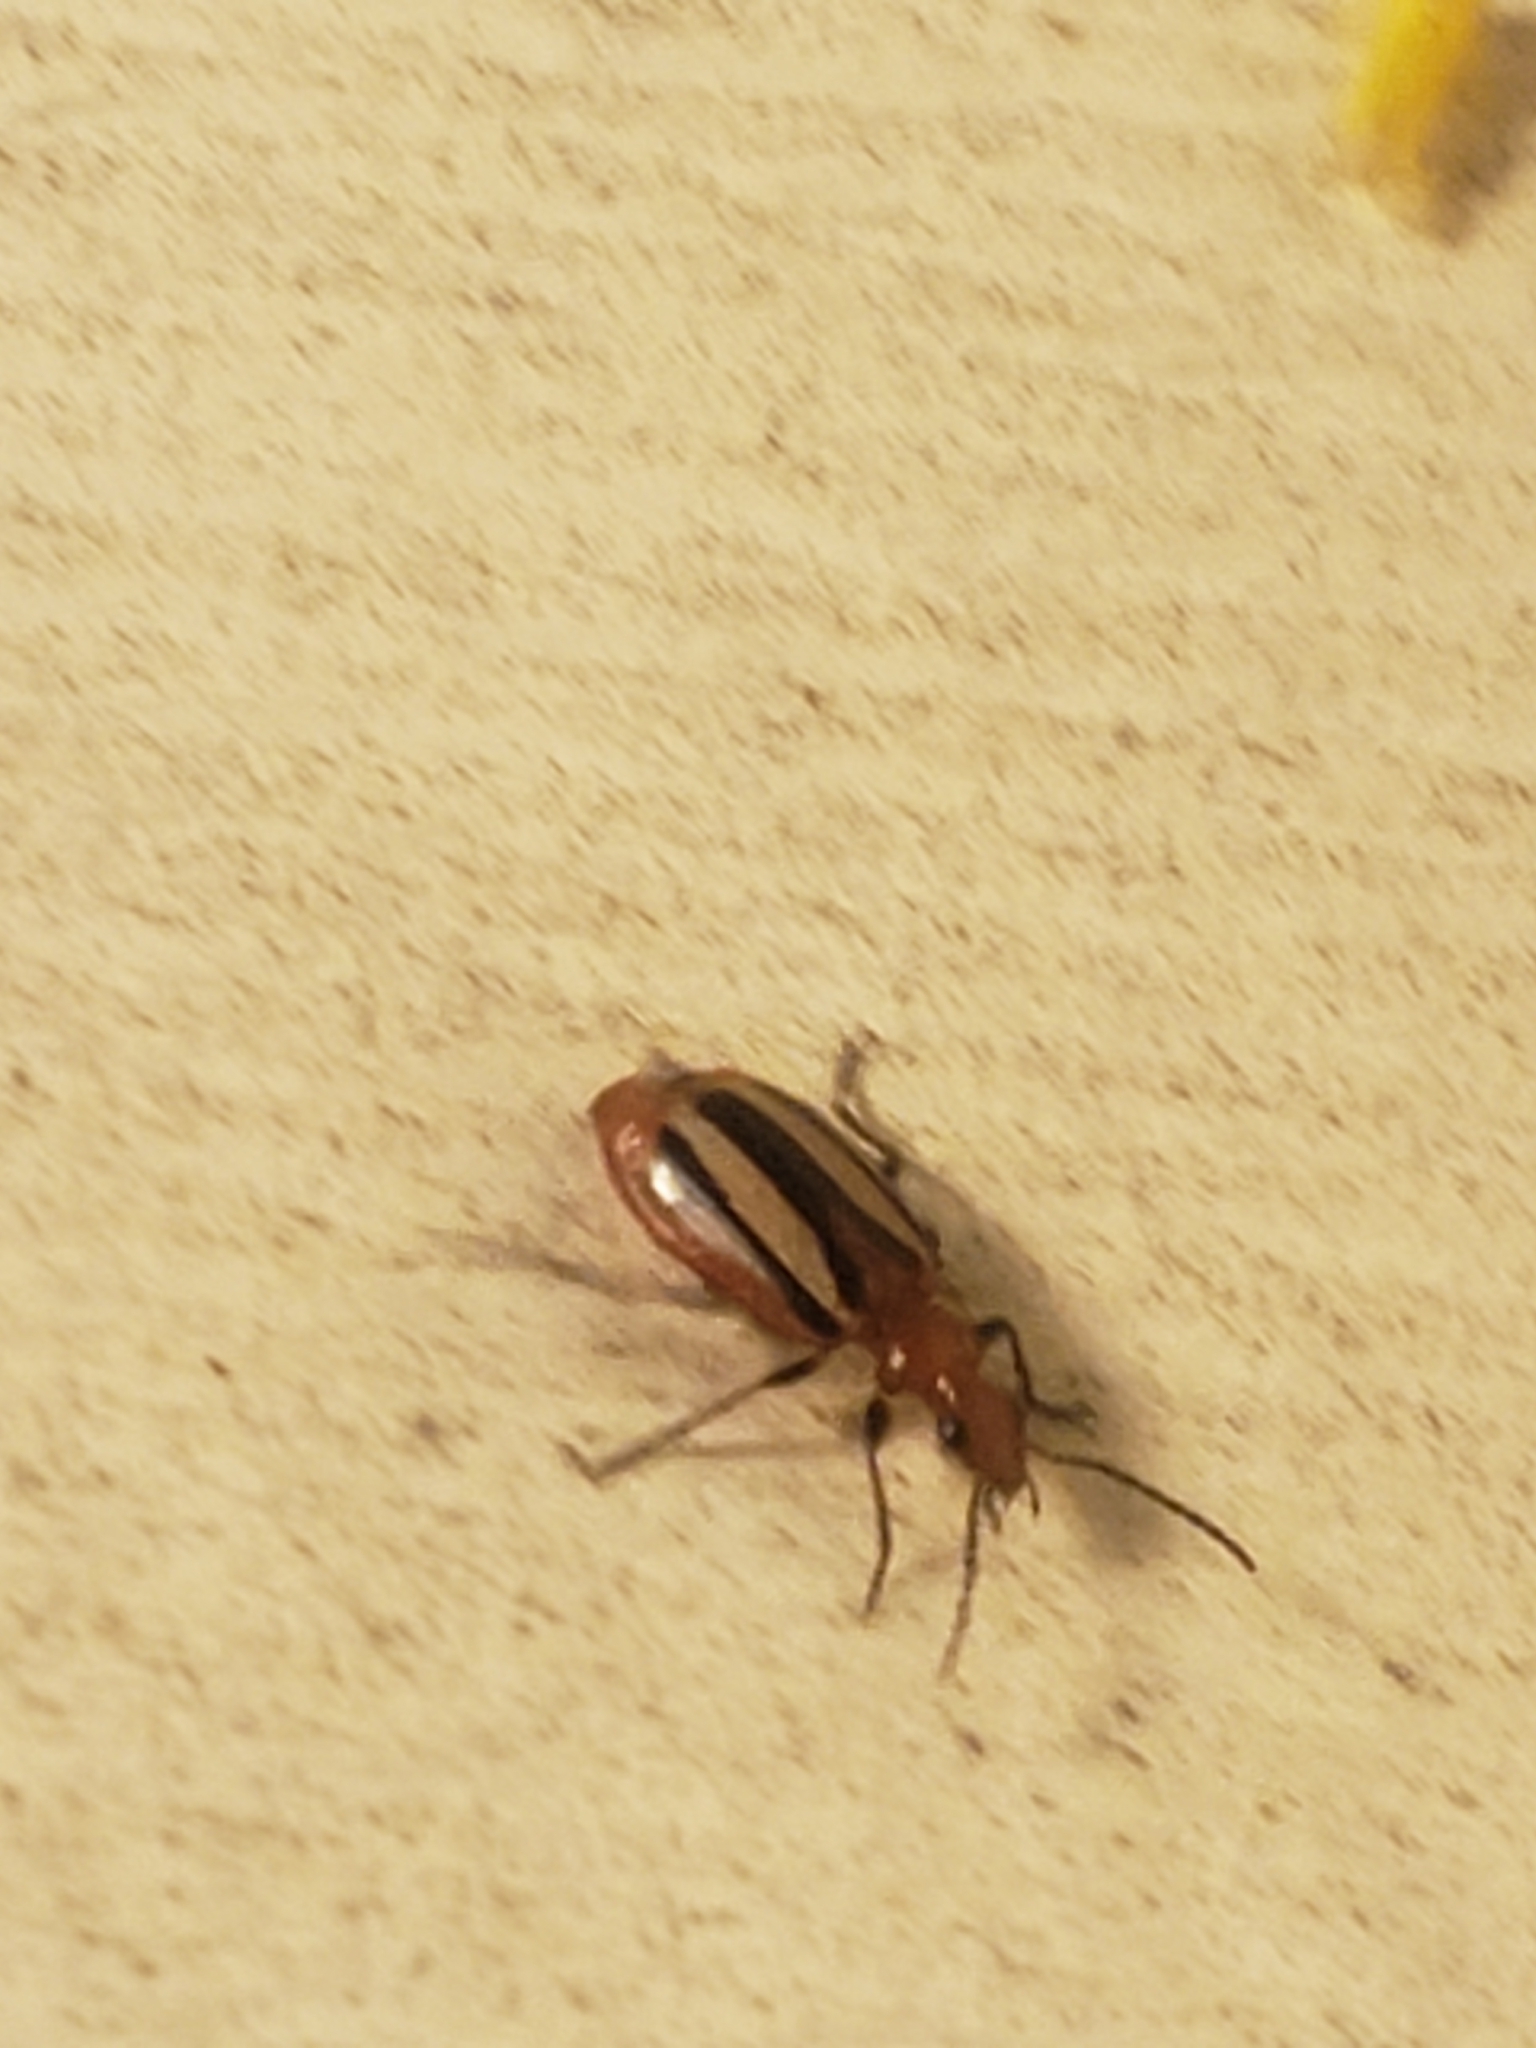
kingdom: Animalia
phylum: Arthropoda
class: Insecta
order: Coleoptera
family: Carabidae
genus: Lebia
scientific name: Lebia vittata
